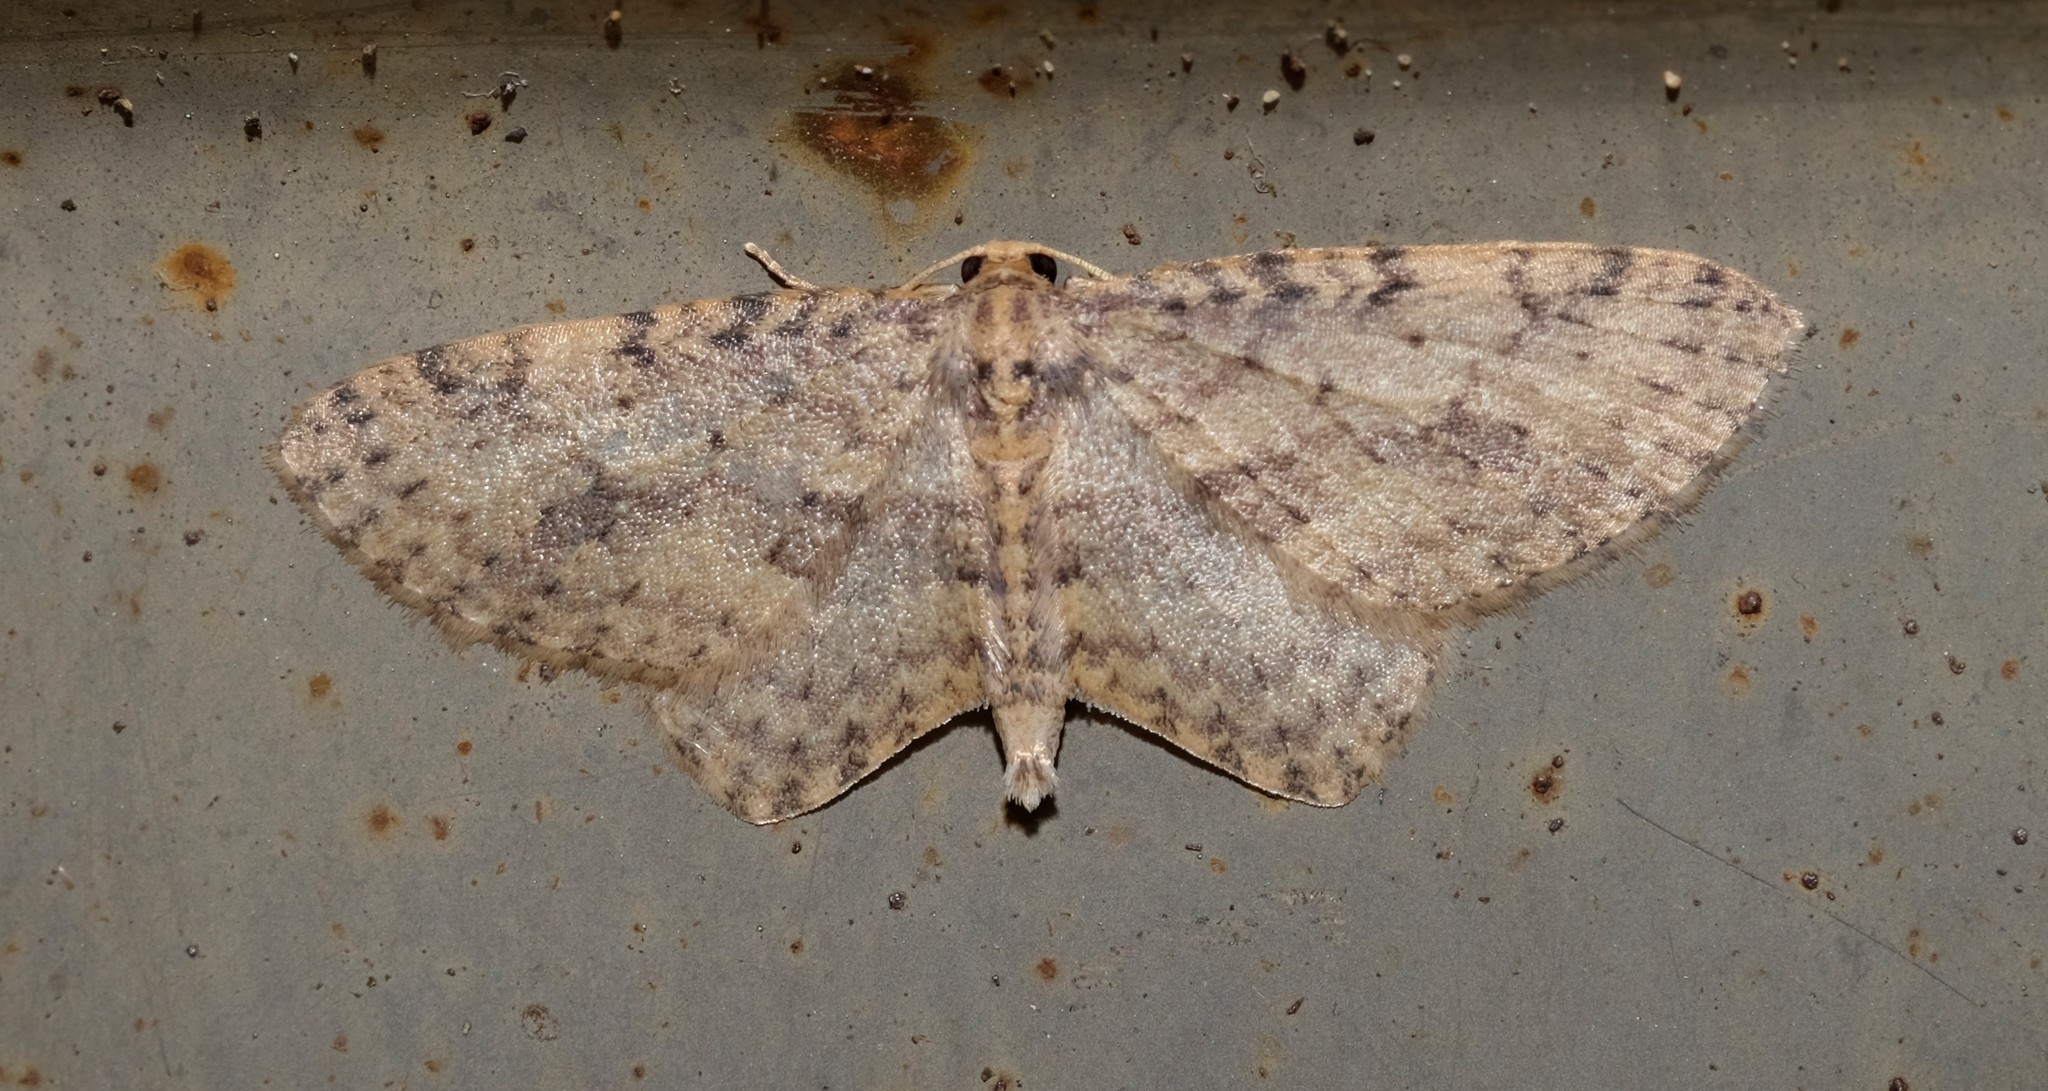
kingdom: Animalia
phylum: Arthropoda
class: Insecta
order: Lepidoptera
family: Geometridae
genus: Poecilasthena
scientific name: Poecilasthena scoliota
